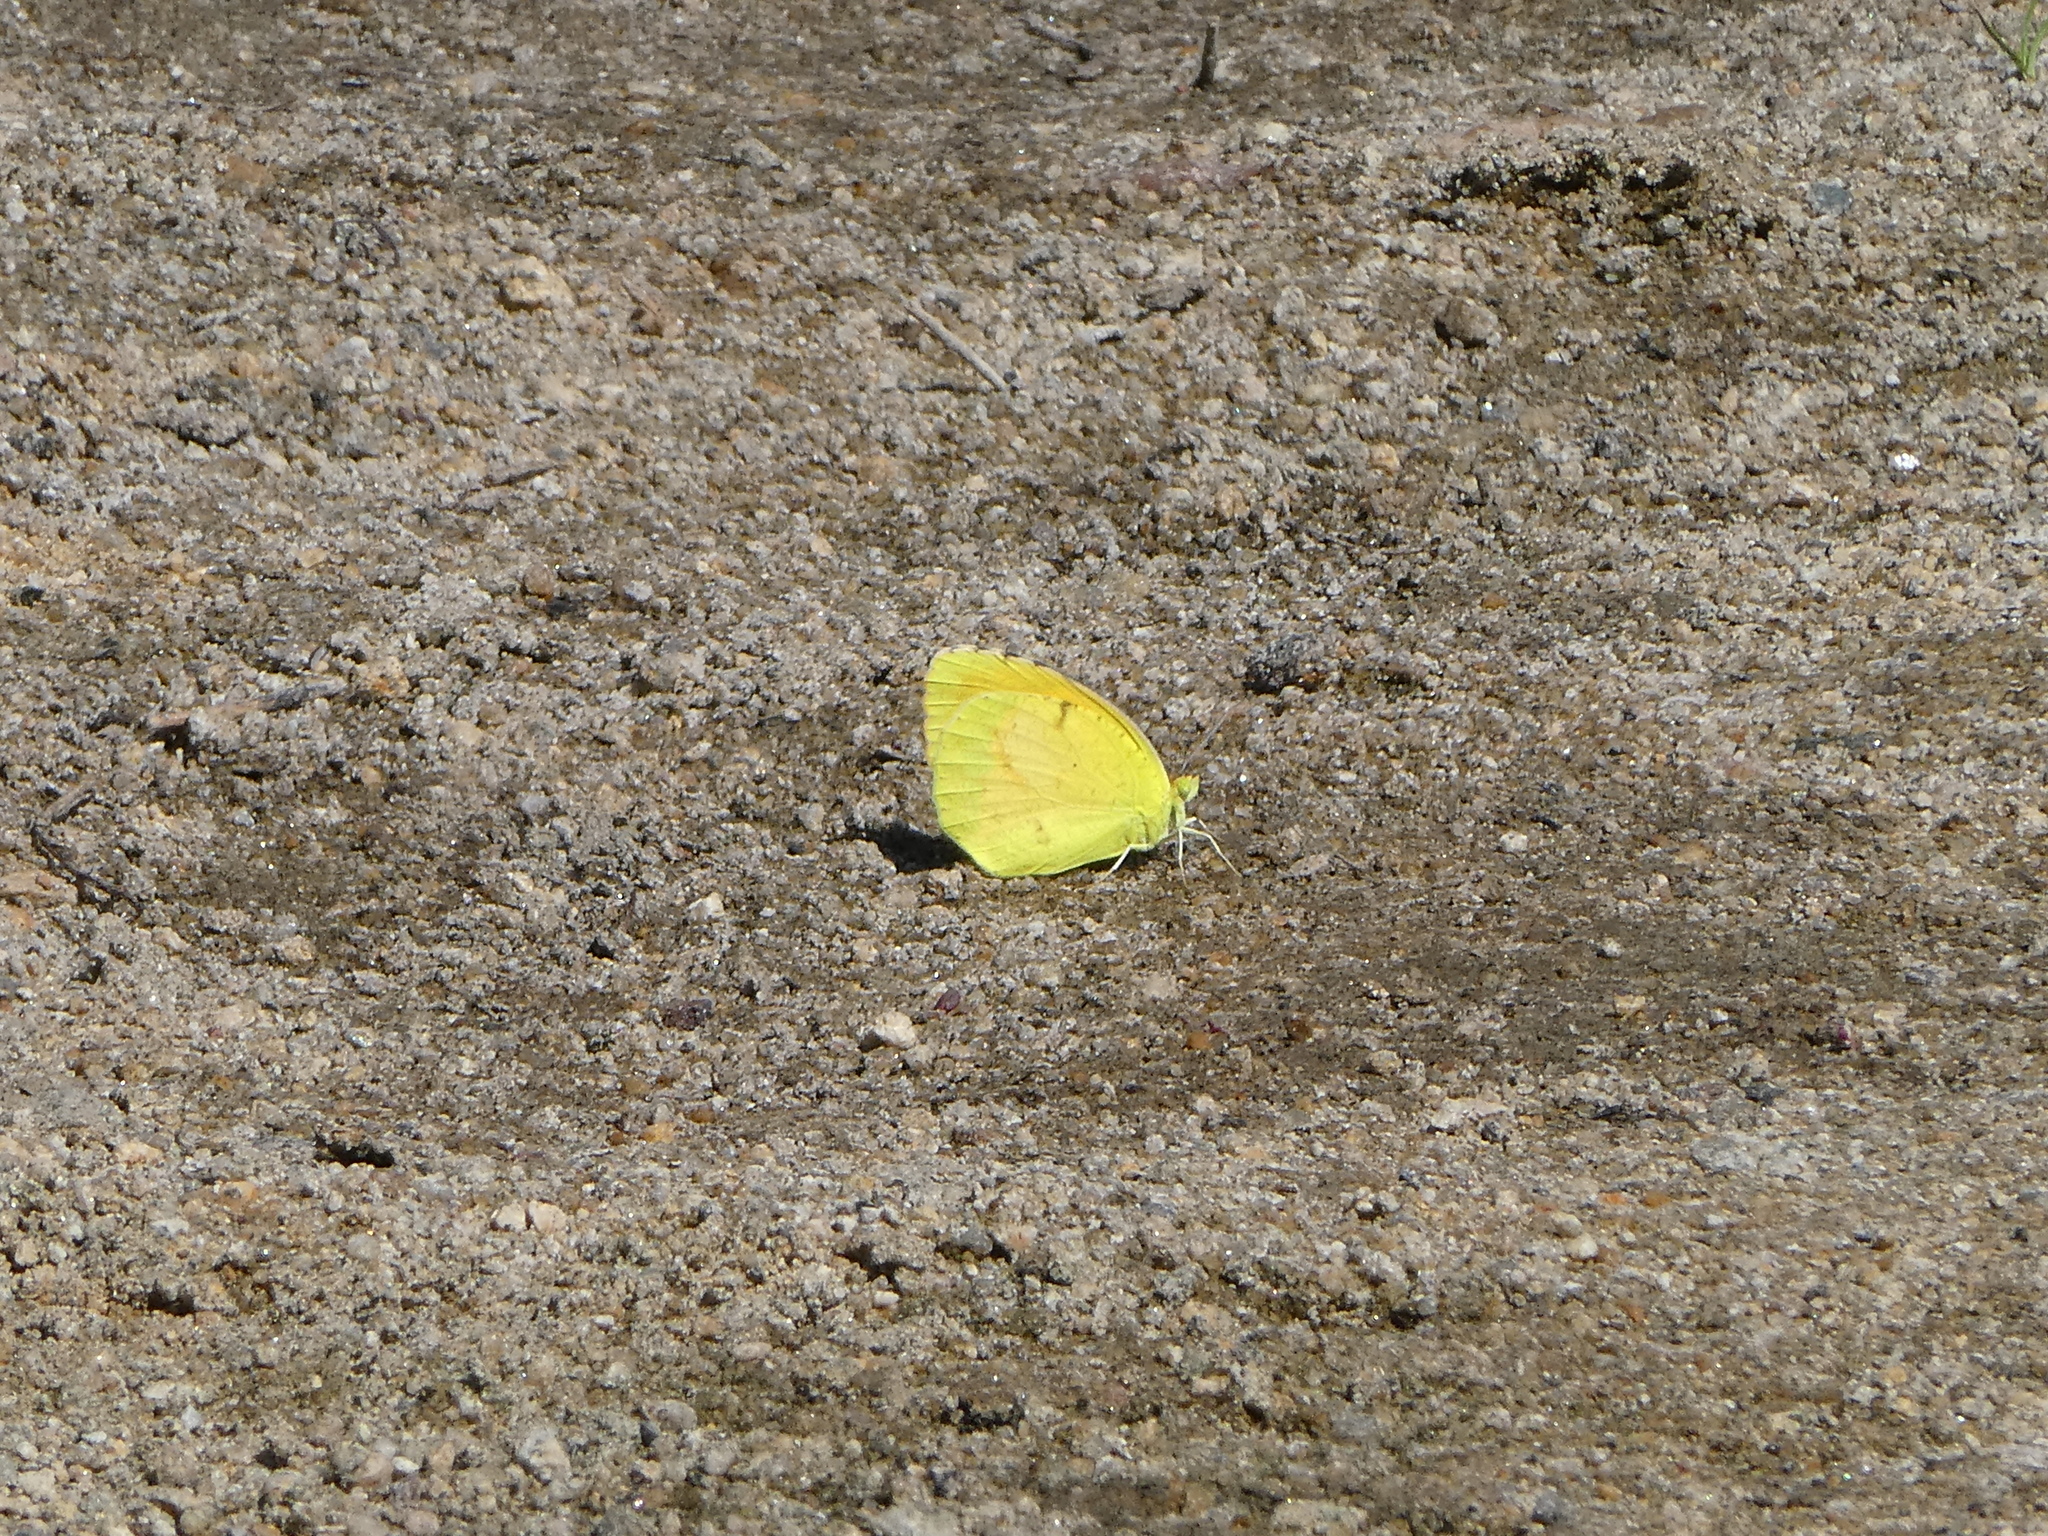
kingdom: Animalia
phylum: Arthropoda
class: Insecta
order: Lepidoptera
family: Pieridae
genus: Abaeis
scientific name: Abaeis nicippe
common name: Sleepy orange
